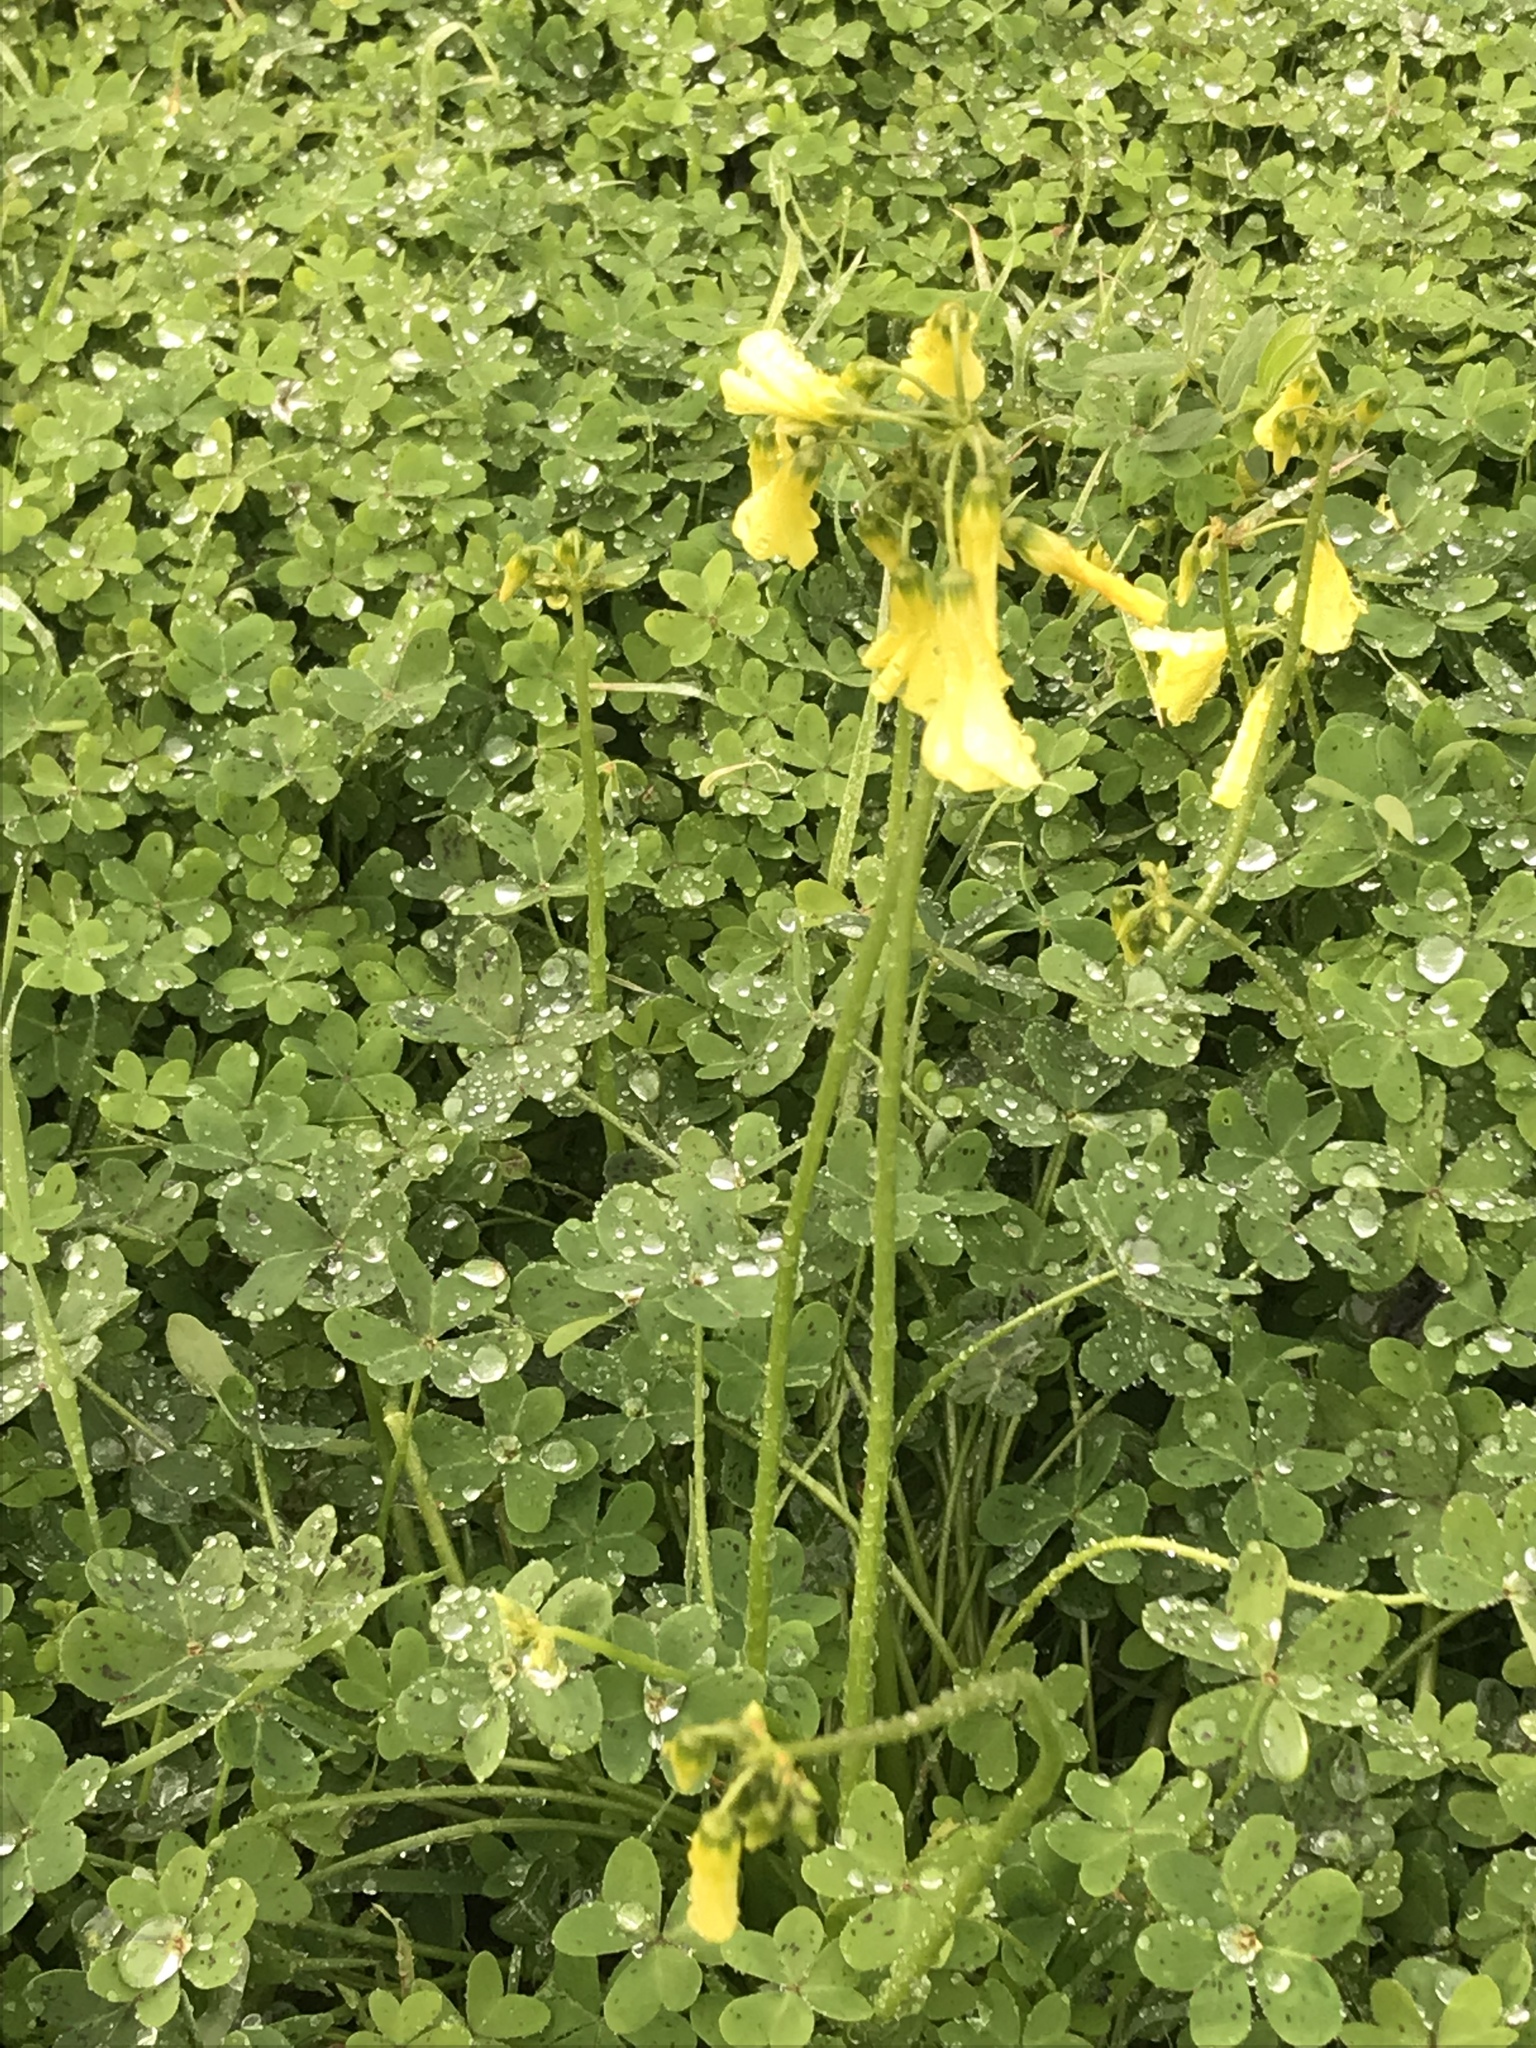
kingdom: Plantae
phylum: Tracheophyta
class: Magnoliopsida
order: Oxalidales
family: Oxalidaceae
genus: Oxalis
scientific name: Oxalis pes-caprae
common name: Bermuda-buttercup
